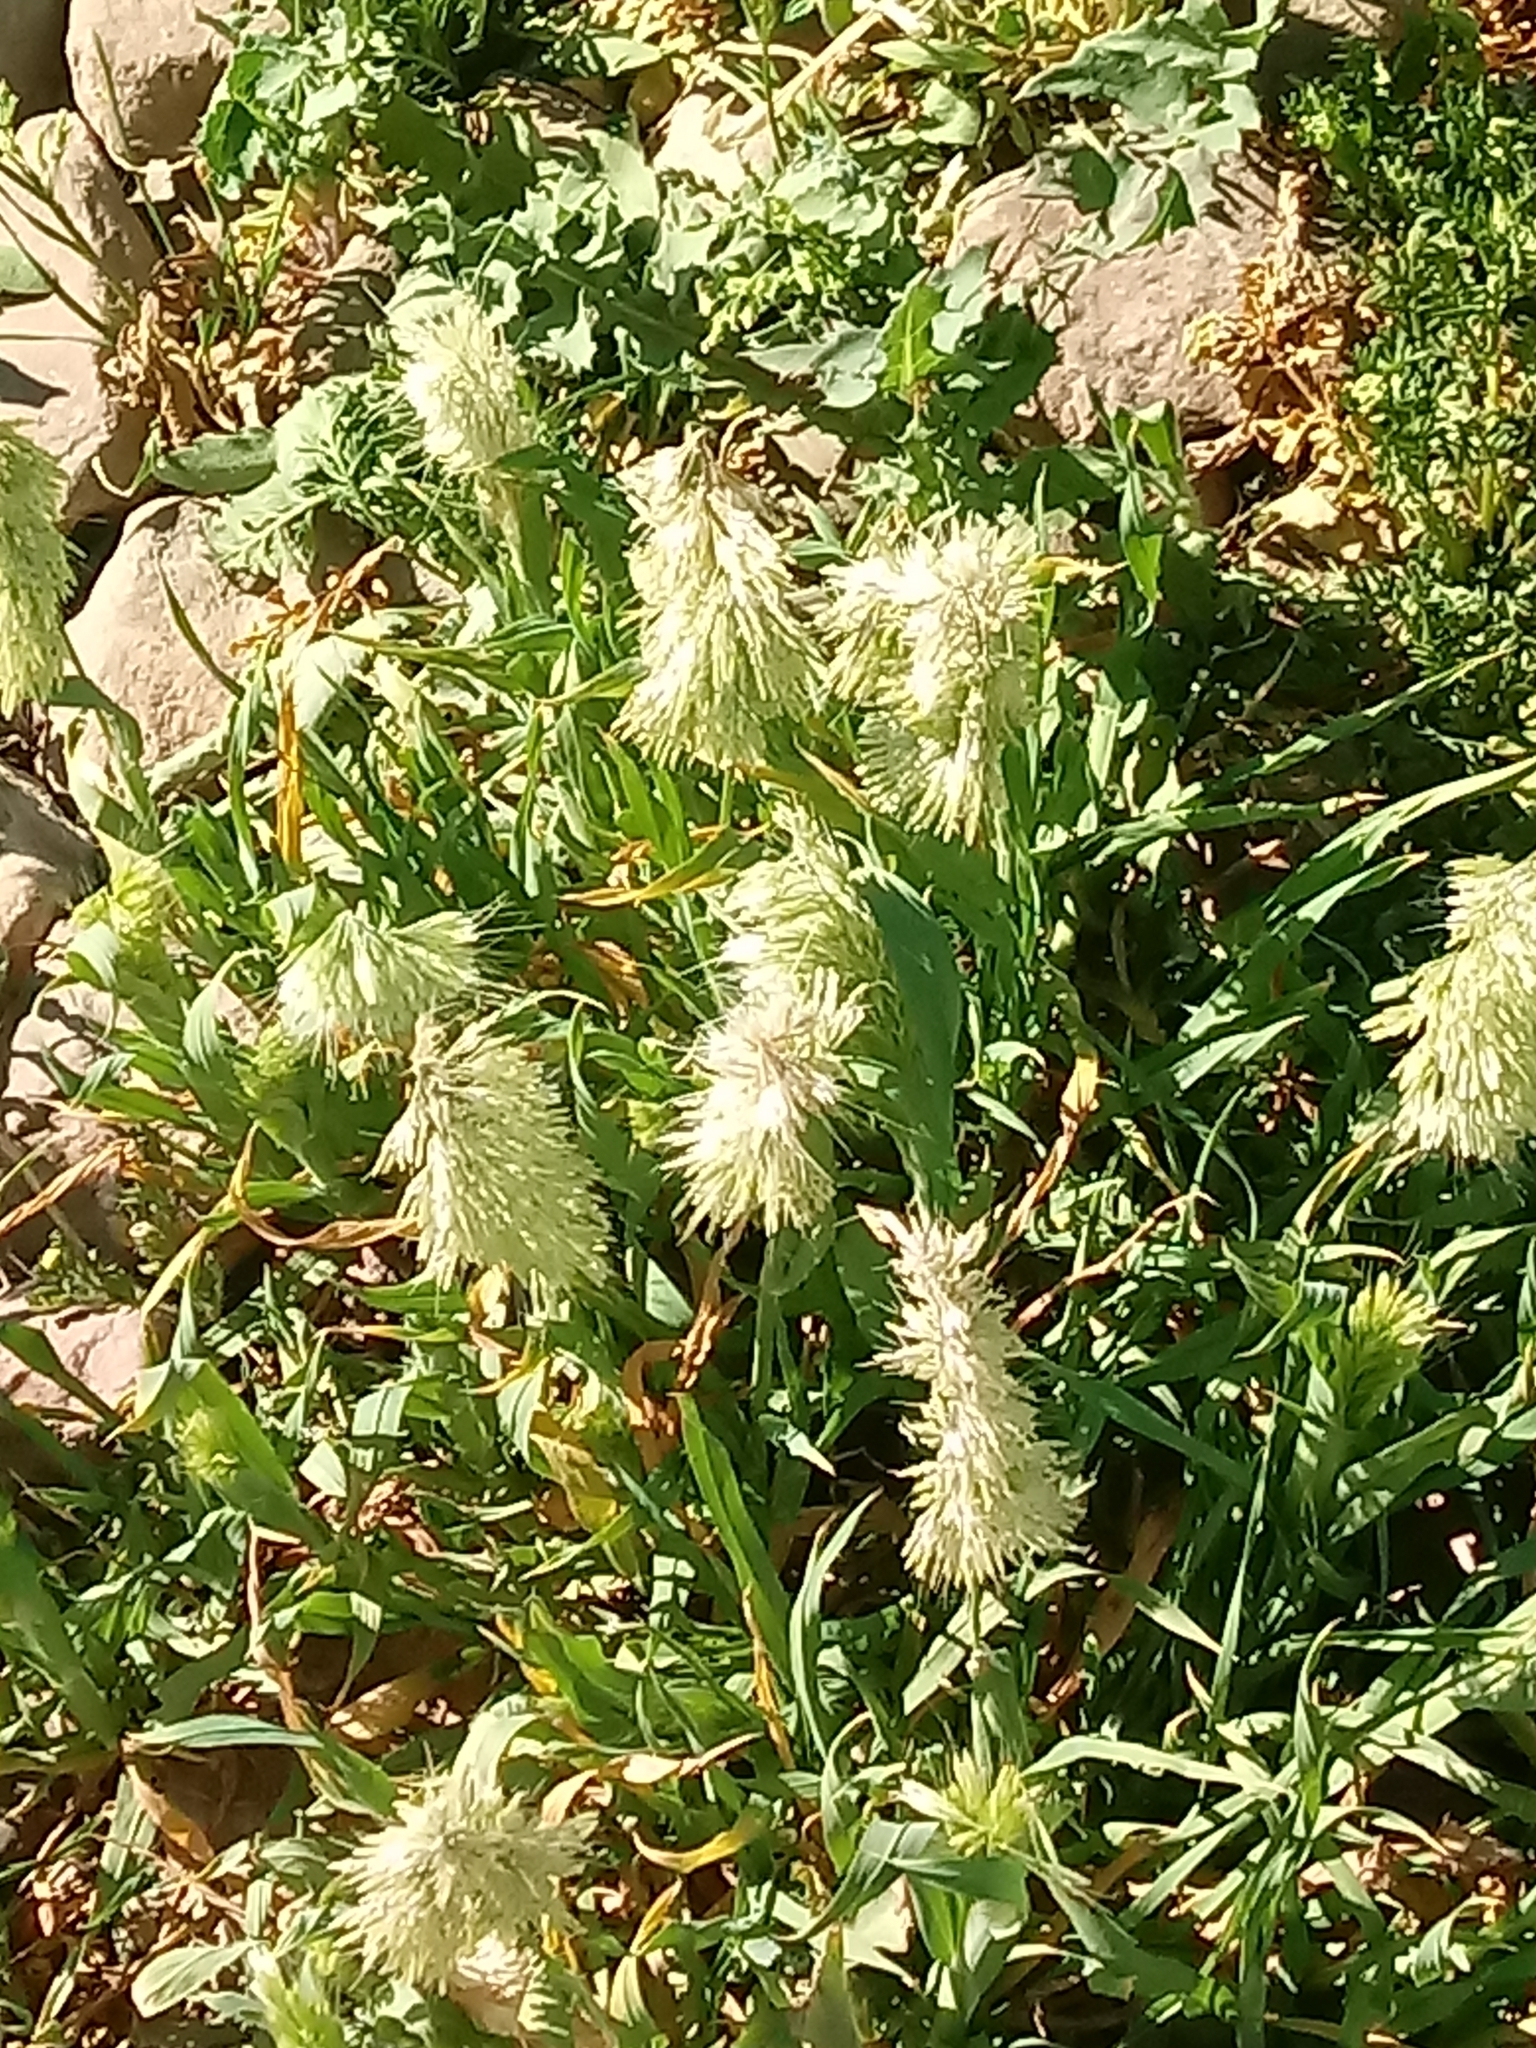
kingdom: Plantae
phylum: Tracheophyta
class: Liliopsida
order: Poales
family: Poaceae
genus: Lamarckia
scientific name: Lamarckia aurea
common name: Golden dog's-tail
